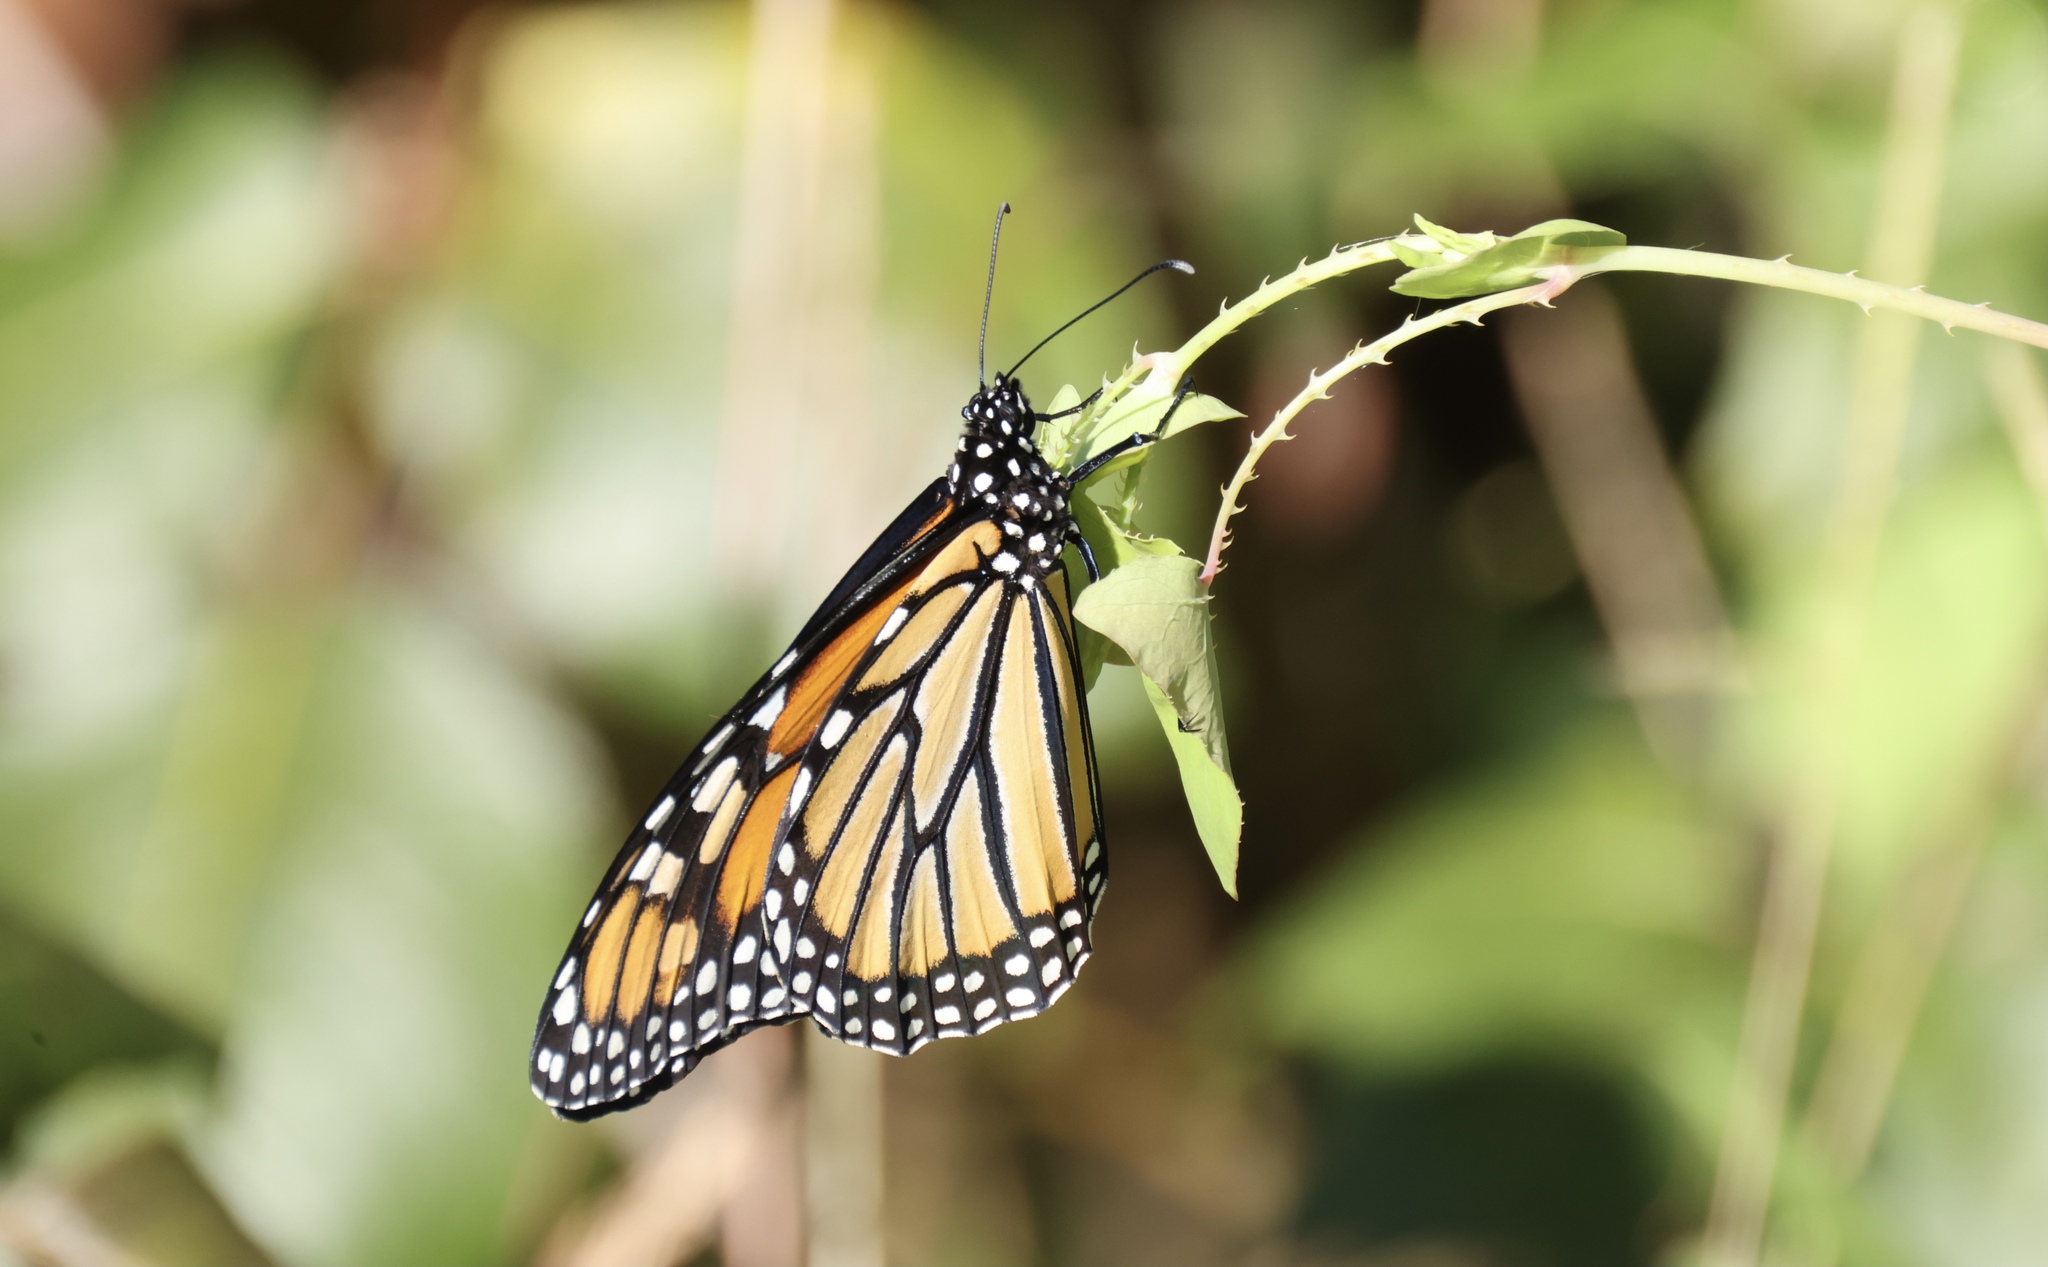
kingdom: Animalia
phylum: Arthropoda
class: Insecta
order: Lepidoptera
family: Nymphalidae
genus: Danaus
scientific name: Danaus plexippus
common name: Monarch
